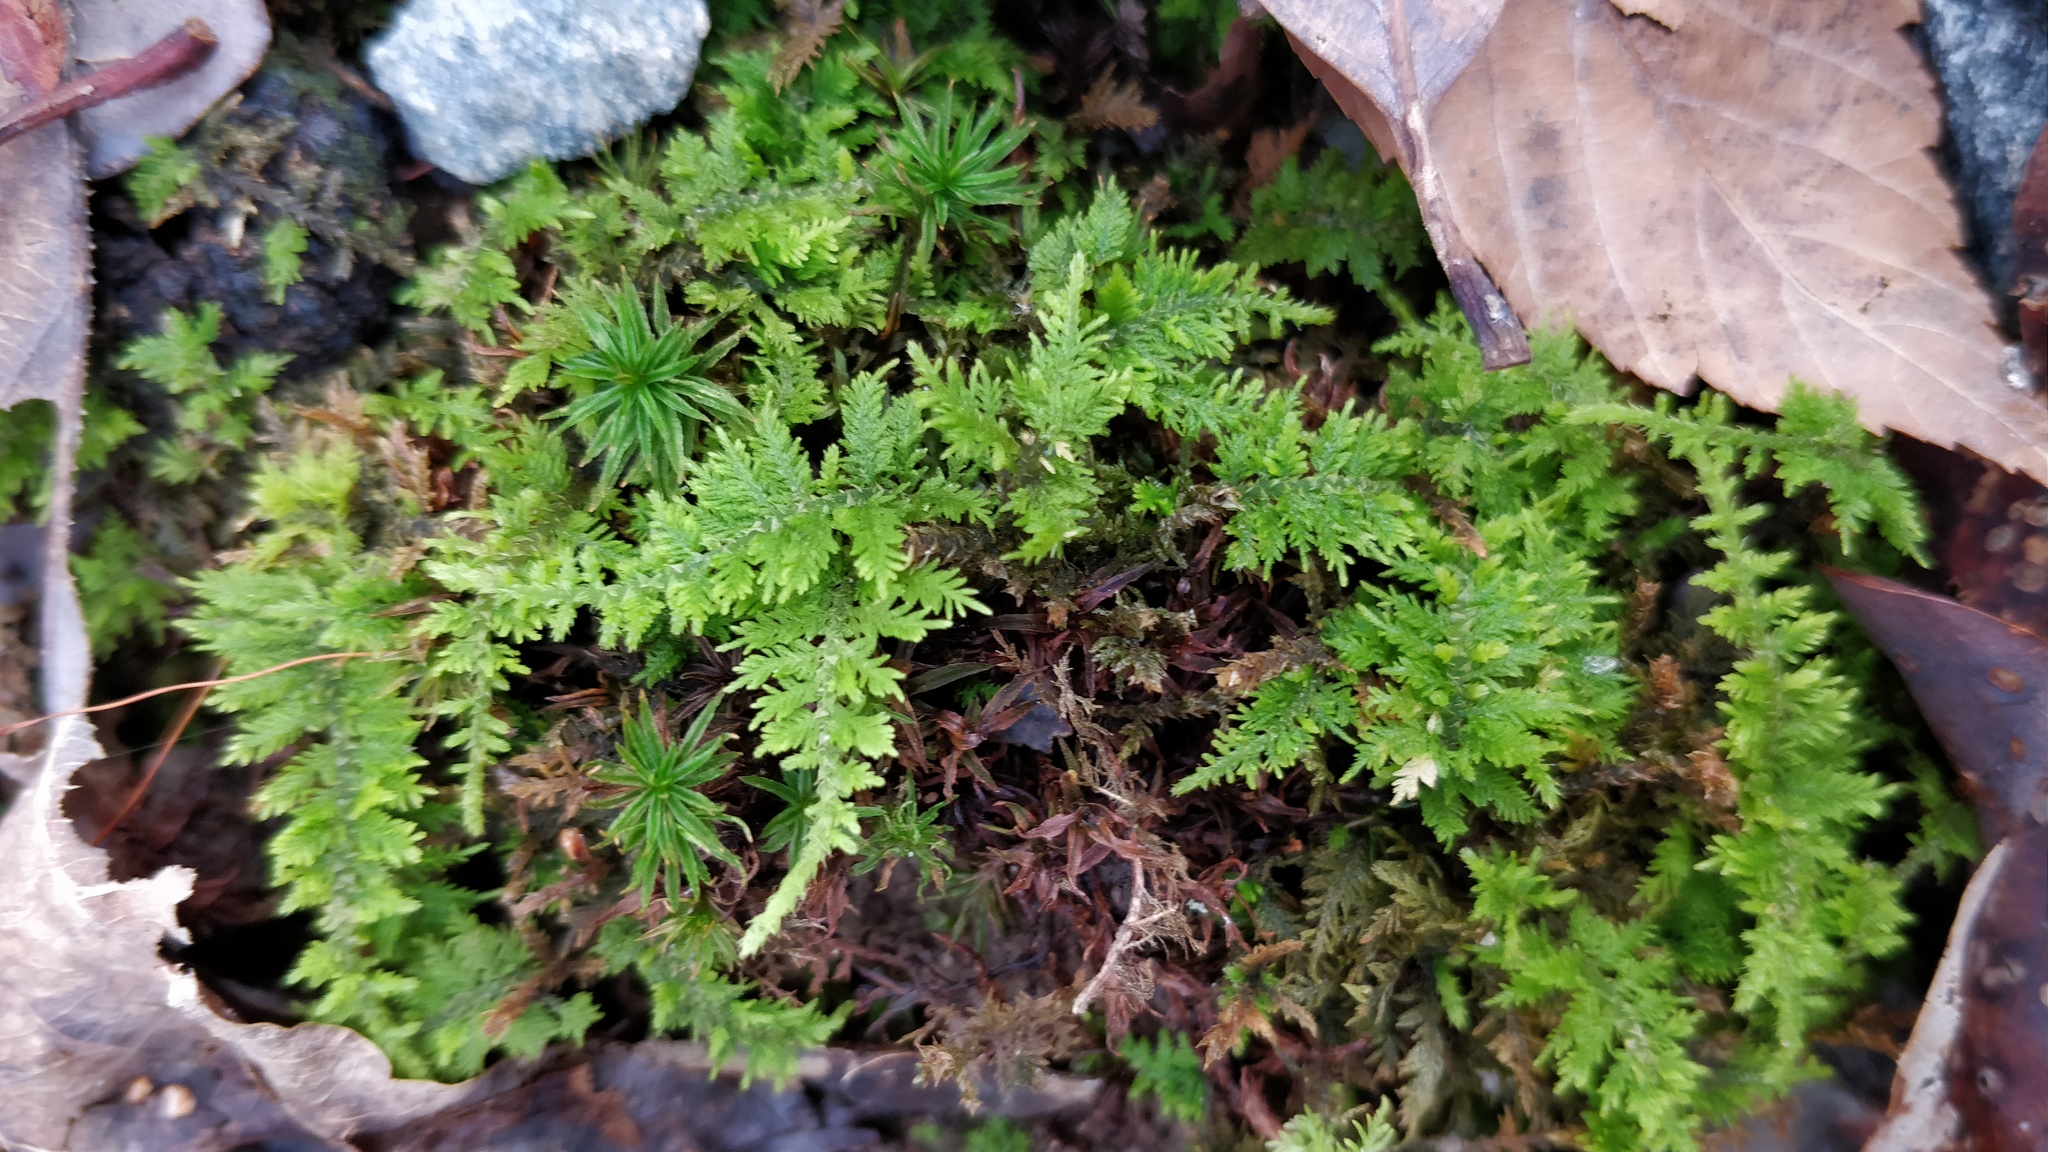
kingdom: Plantae
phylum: Bryophyta
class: Bryopsida
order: Hypnales
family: Thuidiaceae
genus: Thuidium
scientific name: Thuidium delicatulum
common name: Delicate fern moss
